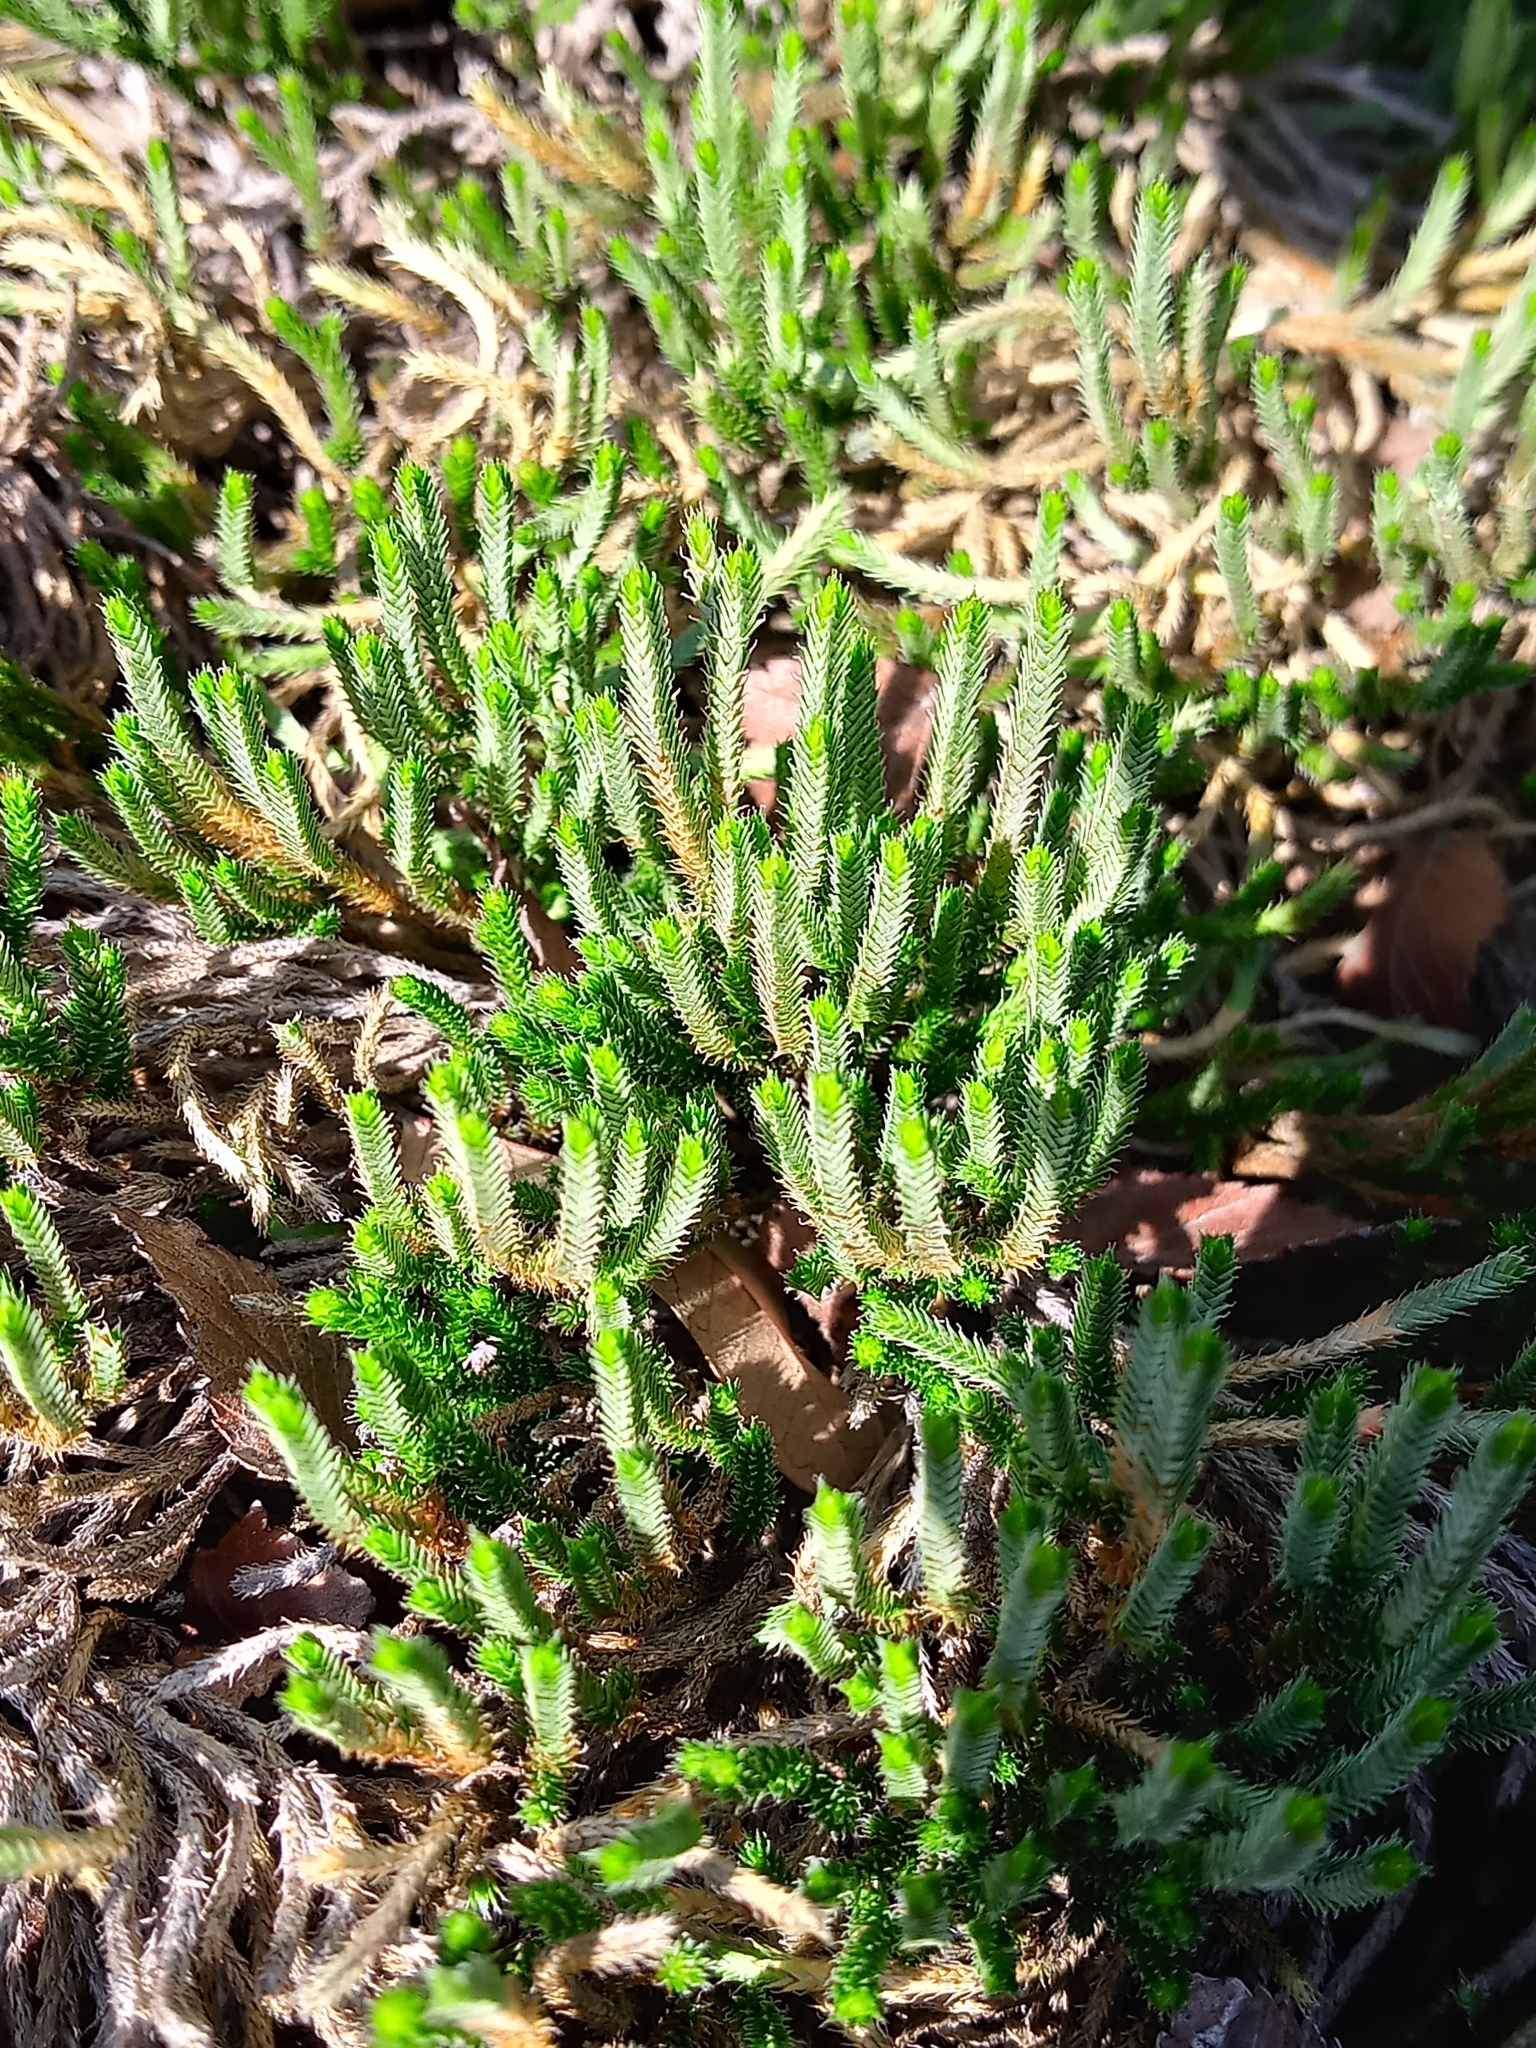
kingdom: Plantae
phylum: Tracheophyta
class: Lycopodiopsida
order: Selaginellales
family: Selaginellaceae
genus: Selaginella
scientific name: Selaginella corallina
